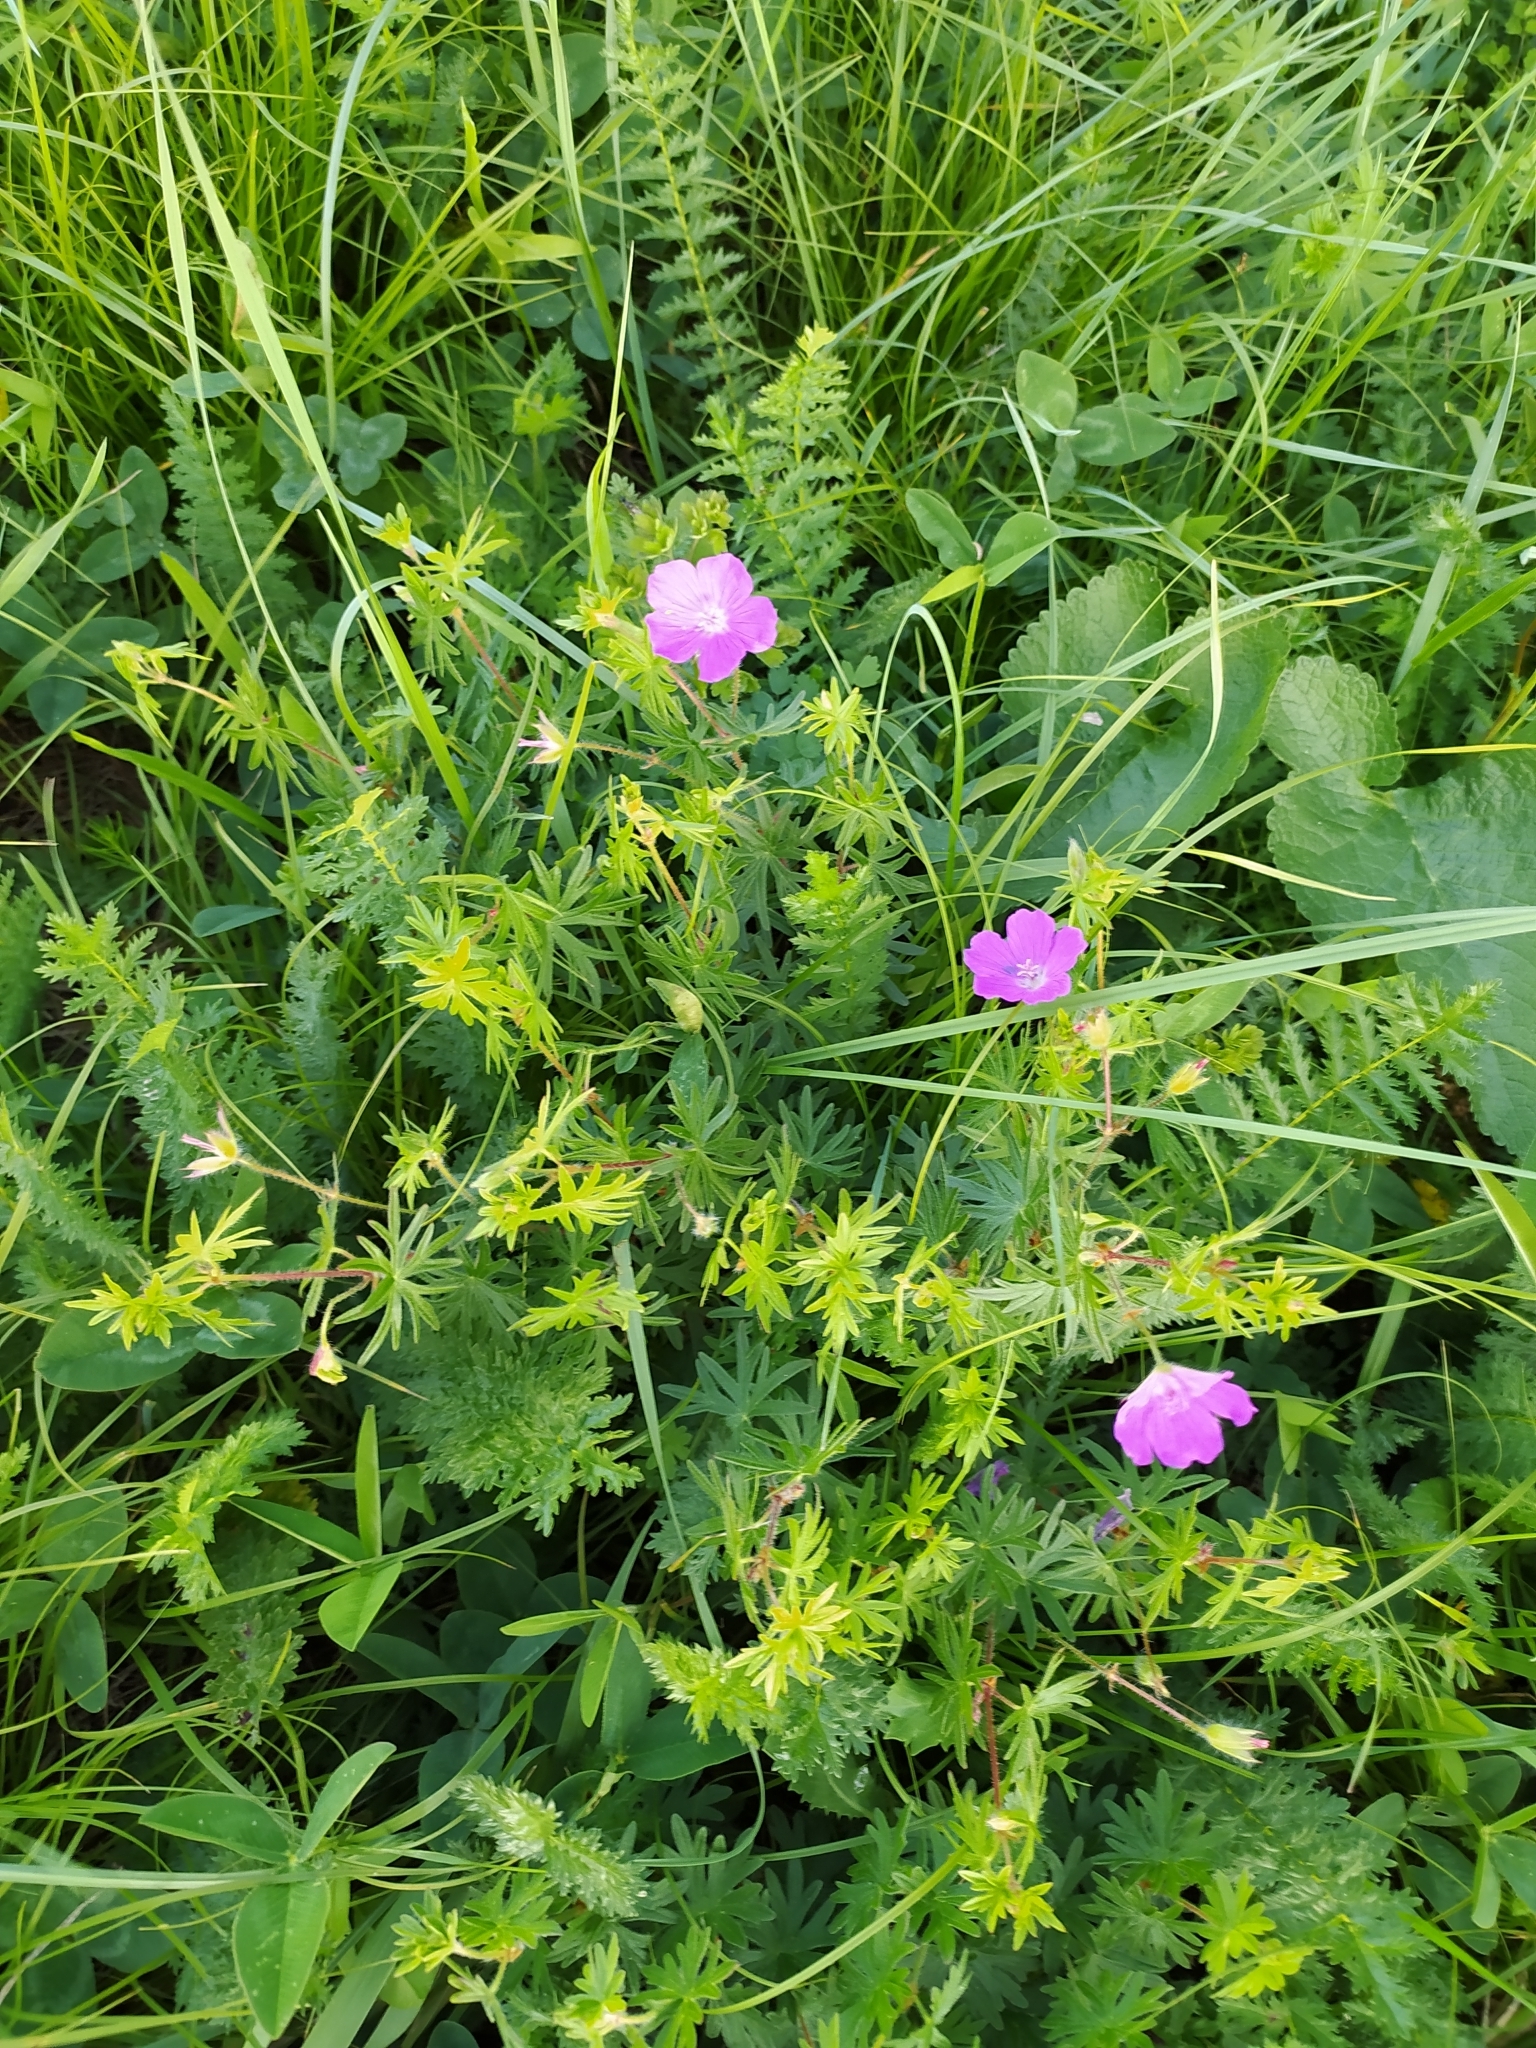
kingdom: Plantae
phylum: Tracheophyta
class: Magnoliopsida
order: Geraniales
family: Geraniaceae
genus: Geranium
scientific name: Geranium sanguineum
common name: Bloody crane's-bill
